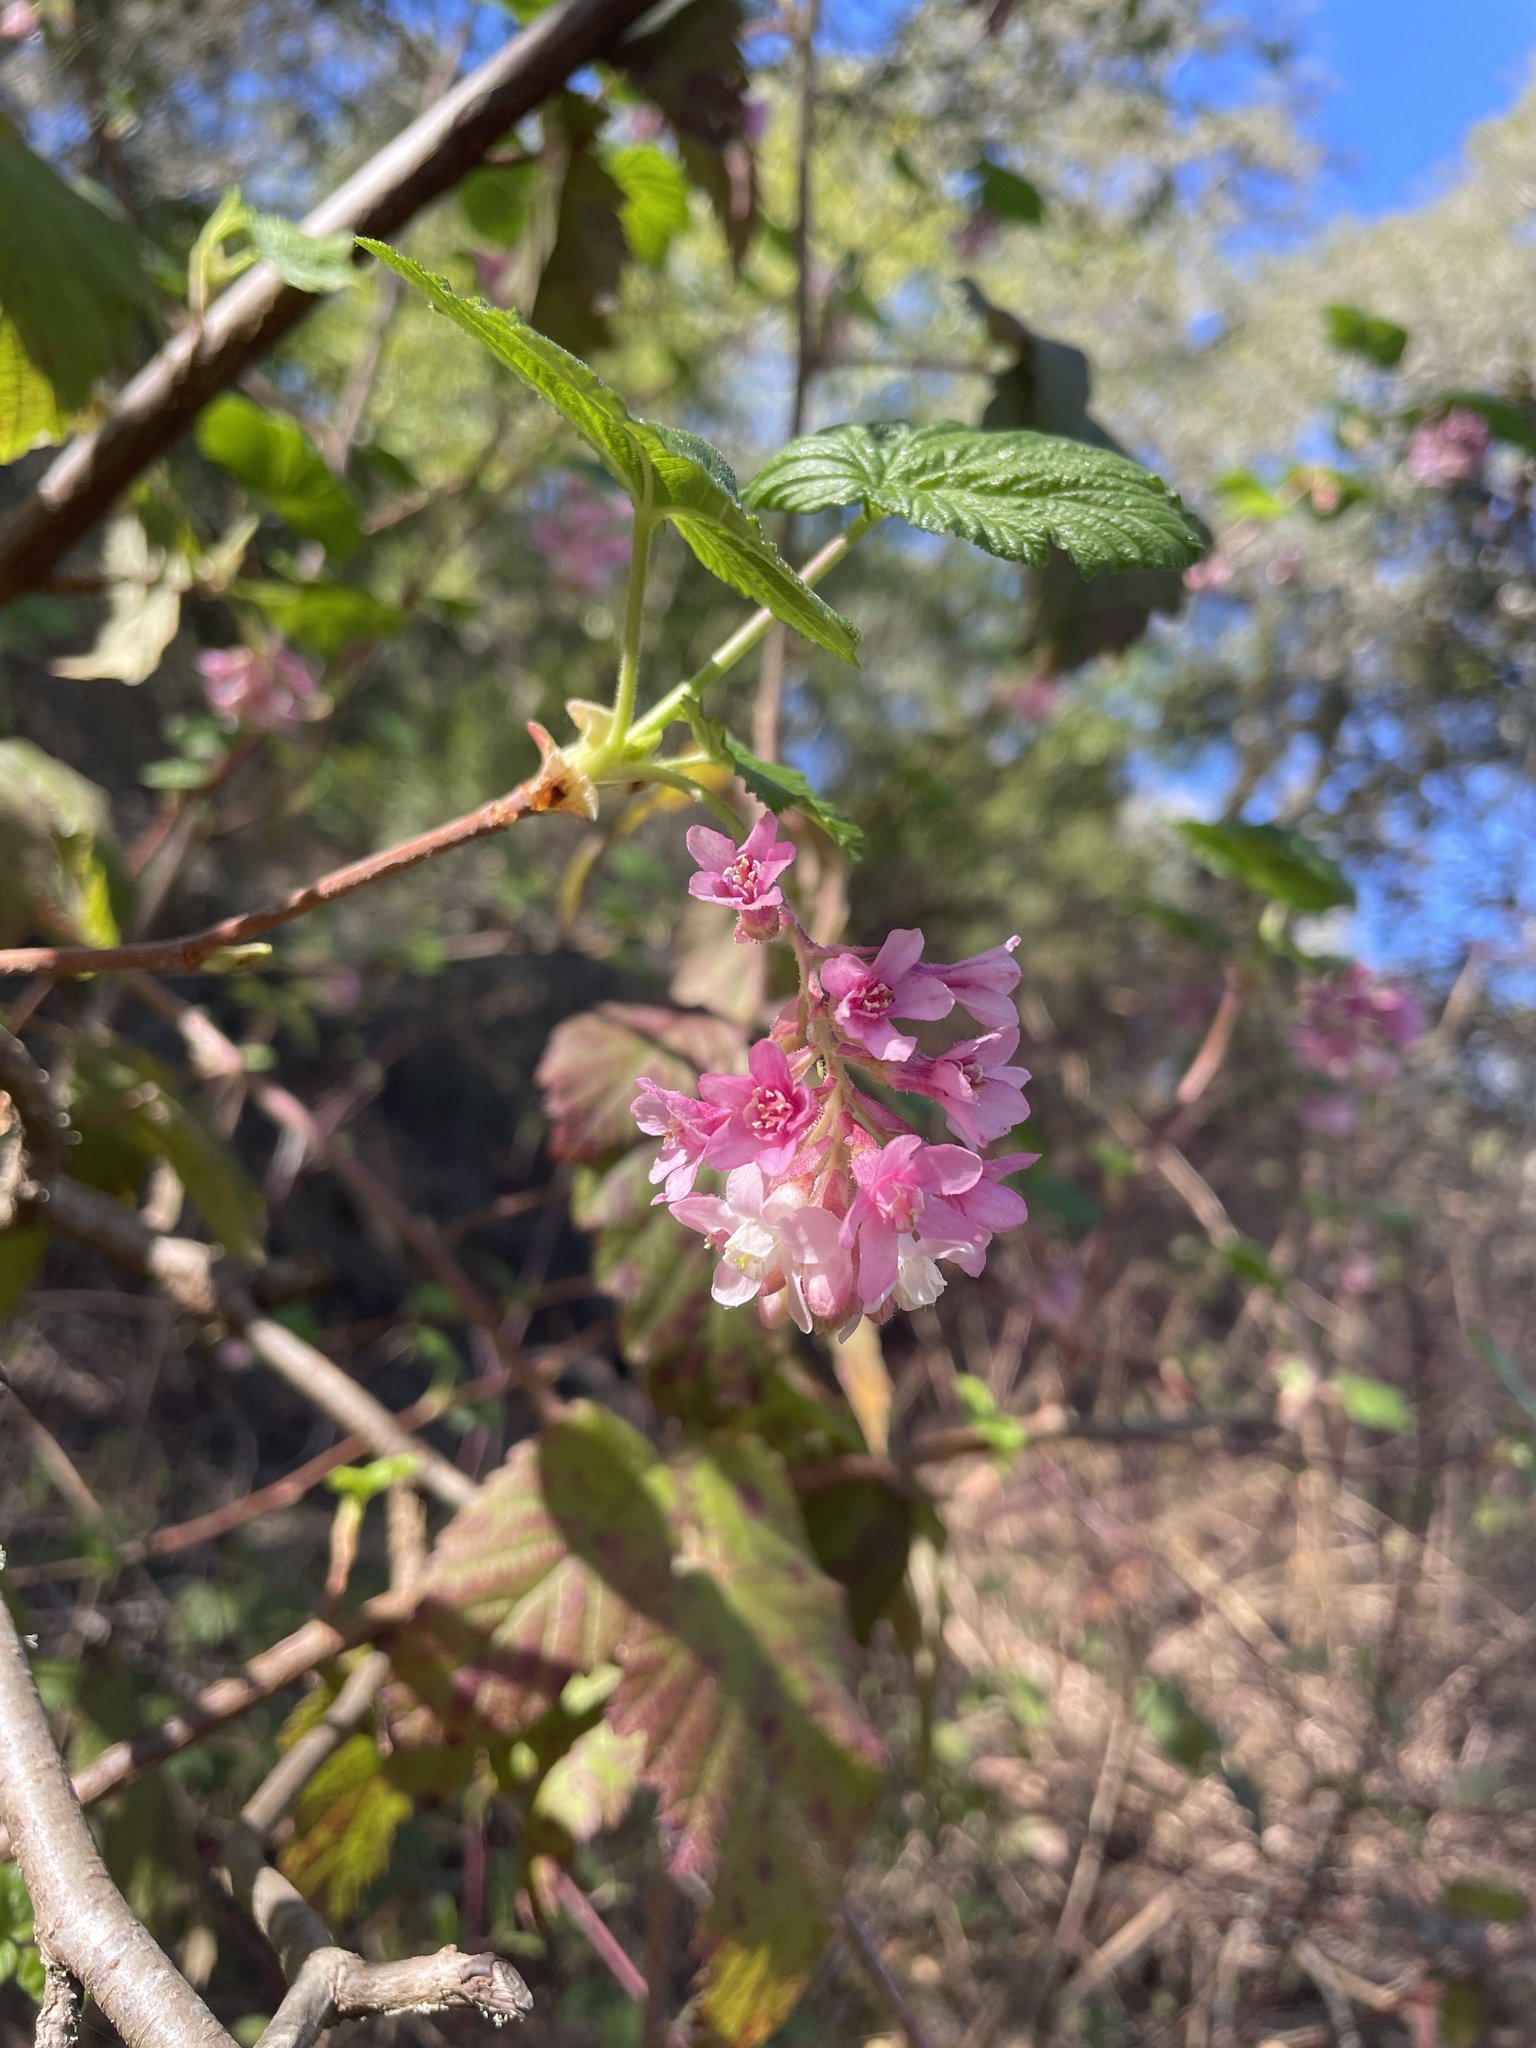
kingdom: Plantae
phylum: Tracheophyta
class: Magnoliopsida
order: Saxifragales
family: Grossulariaceae
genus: Ribes
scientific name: Ribes sanguineum
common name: Flowering currant
